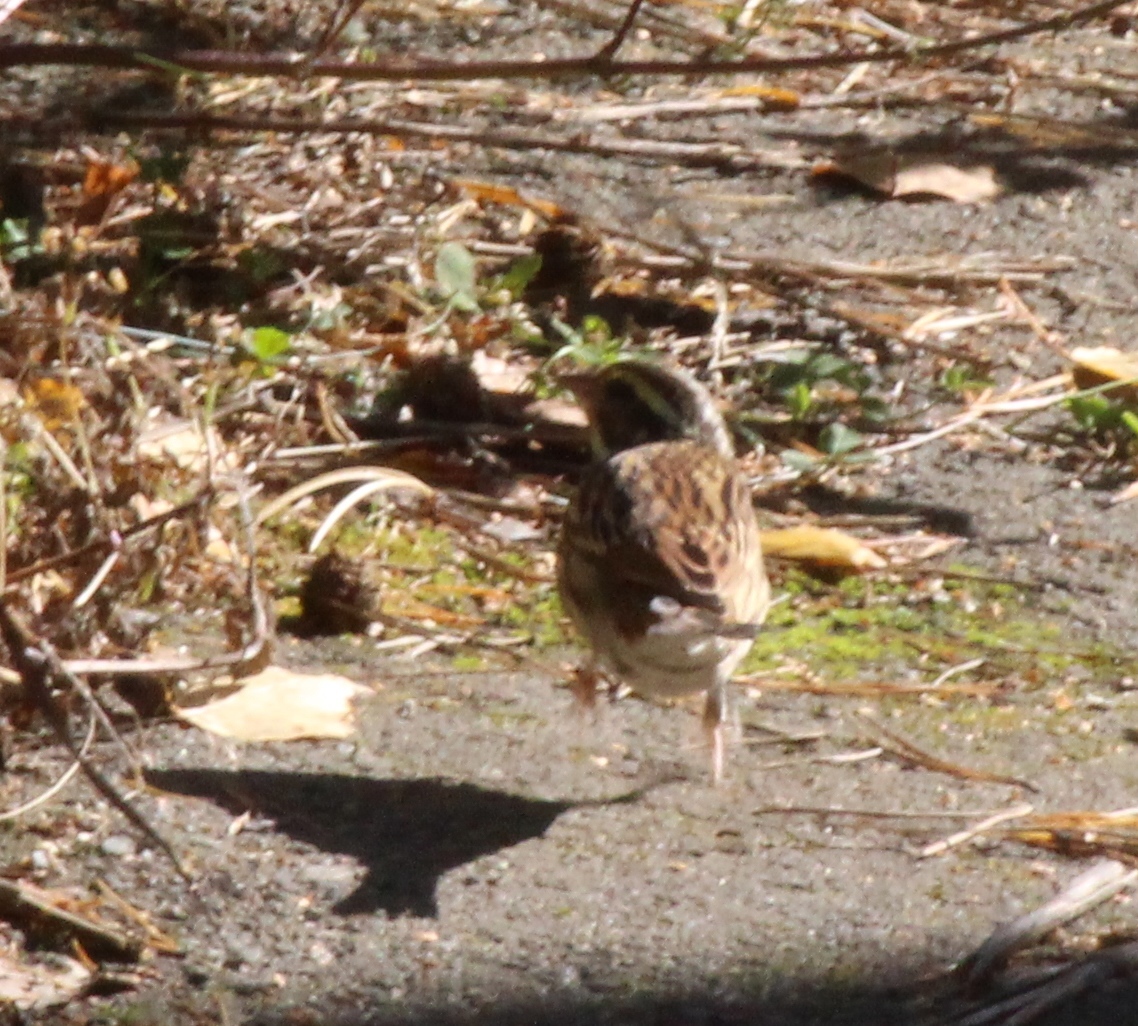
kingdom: Animalia
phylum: Chordata
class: Aves
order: Passeriformes
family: Emberizidae
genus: Emberiza
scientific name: Emberiza chrysophrys
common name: Yellow-browed bunting
